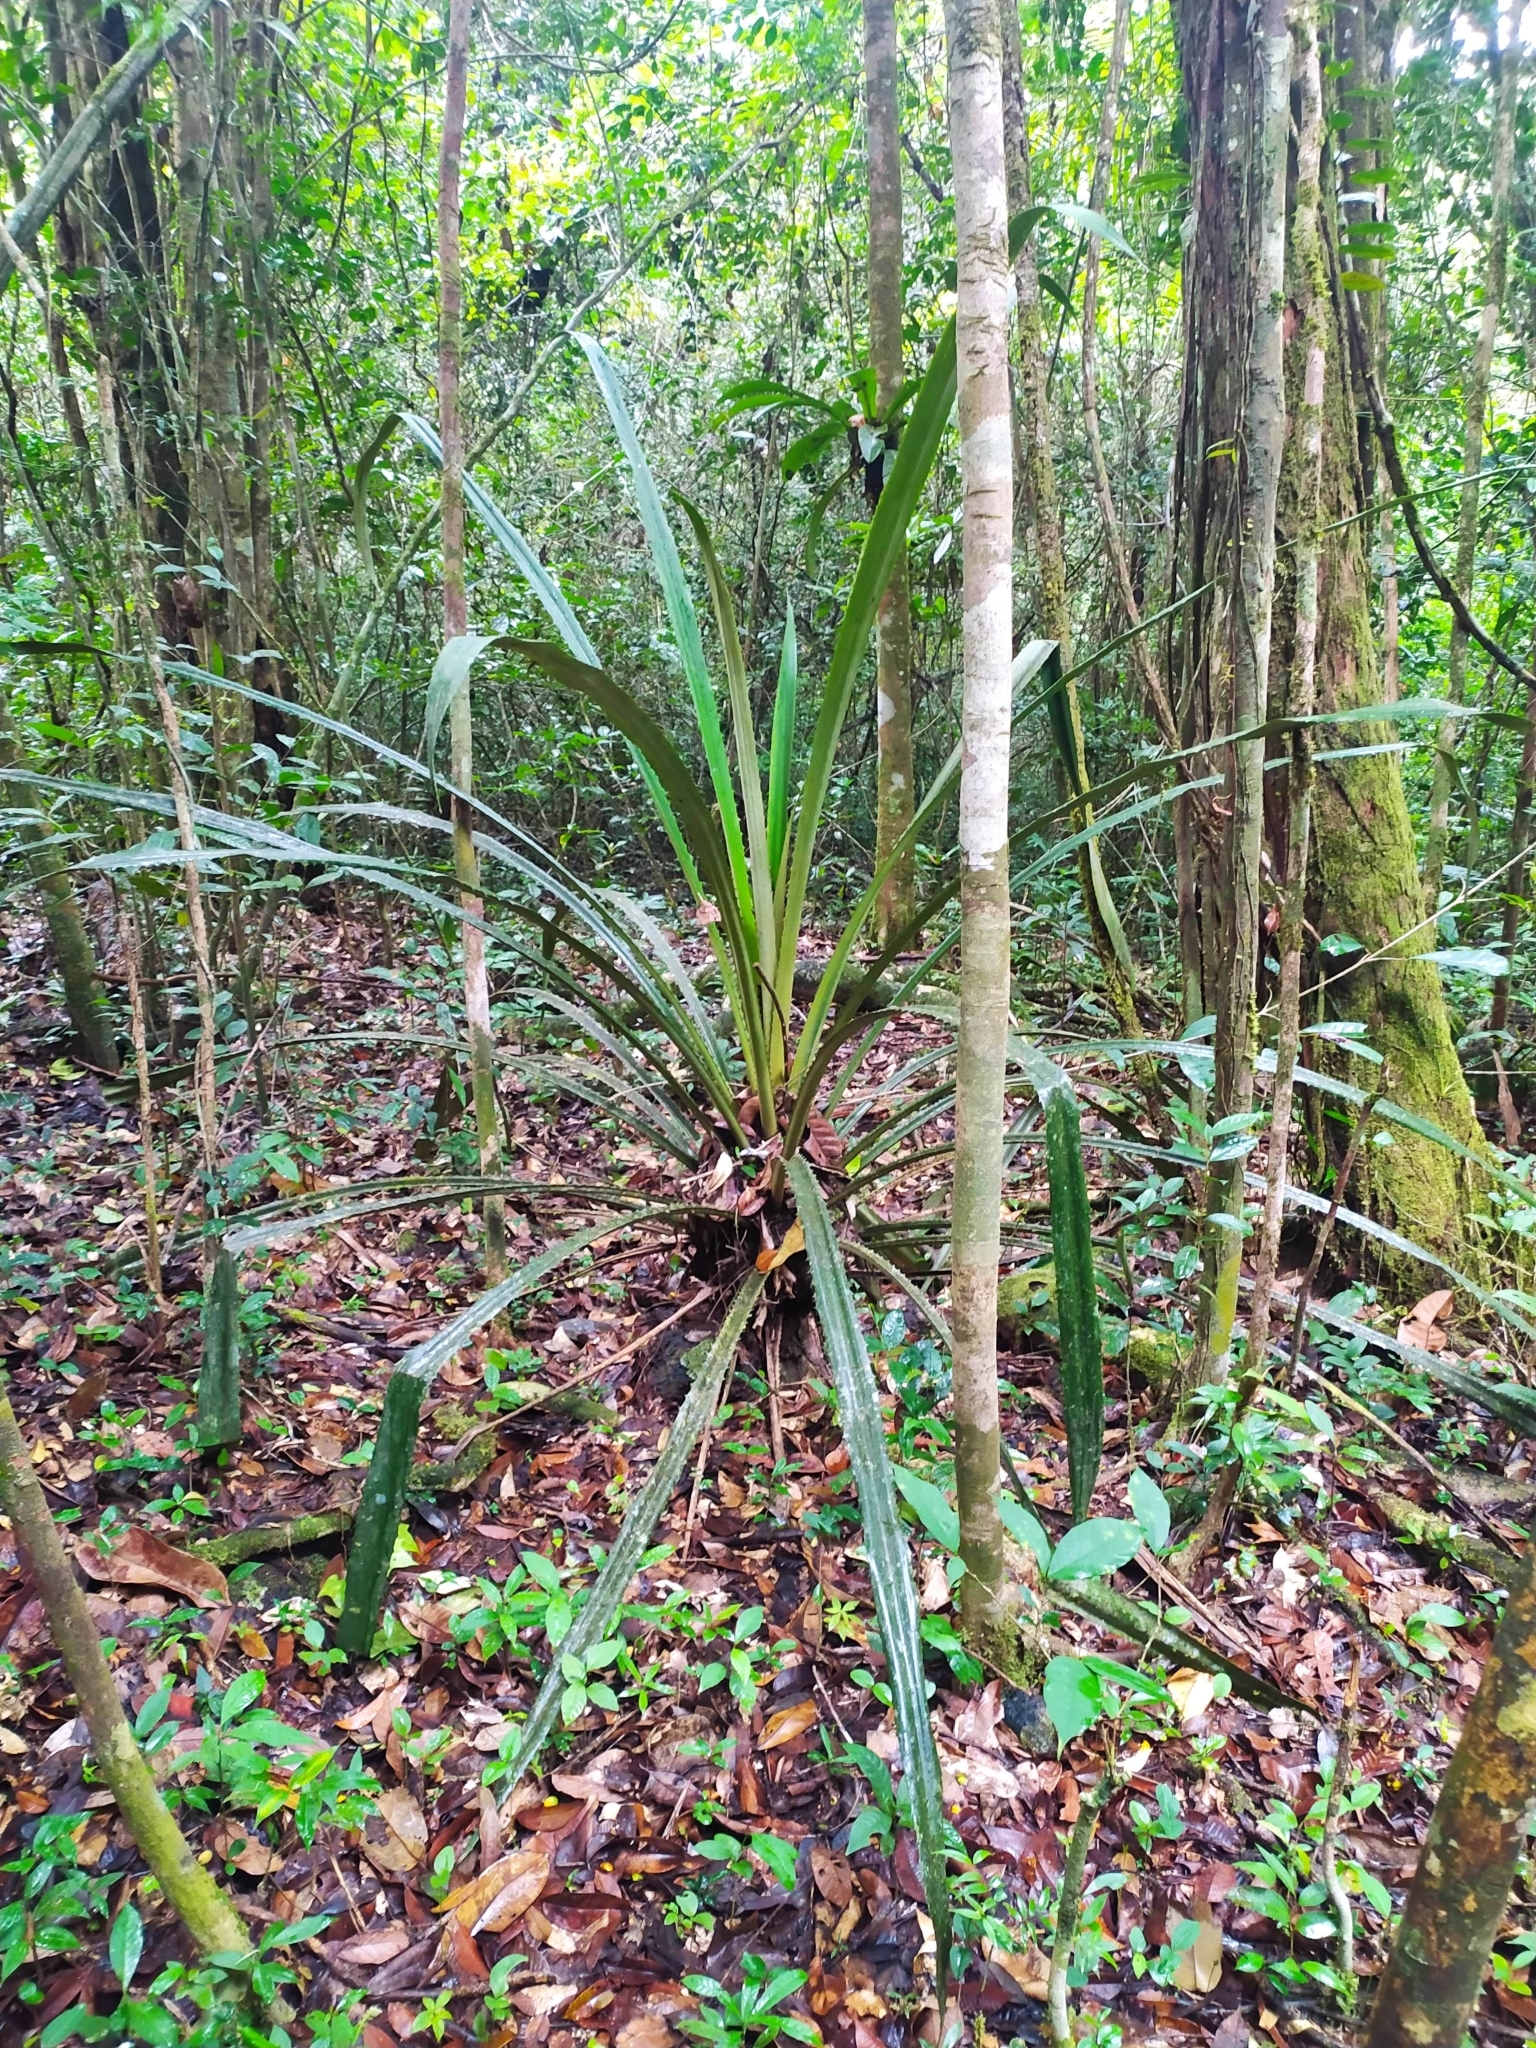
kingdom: Plantae
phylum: Tracheophyta
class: Liliopsida
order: Poales
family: Bromeliaceae
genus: Bromelia
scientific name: Bromelia fosteriana
